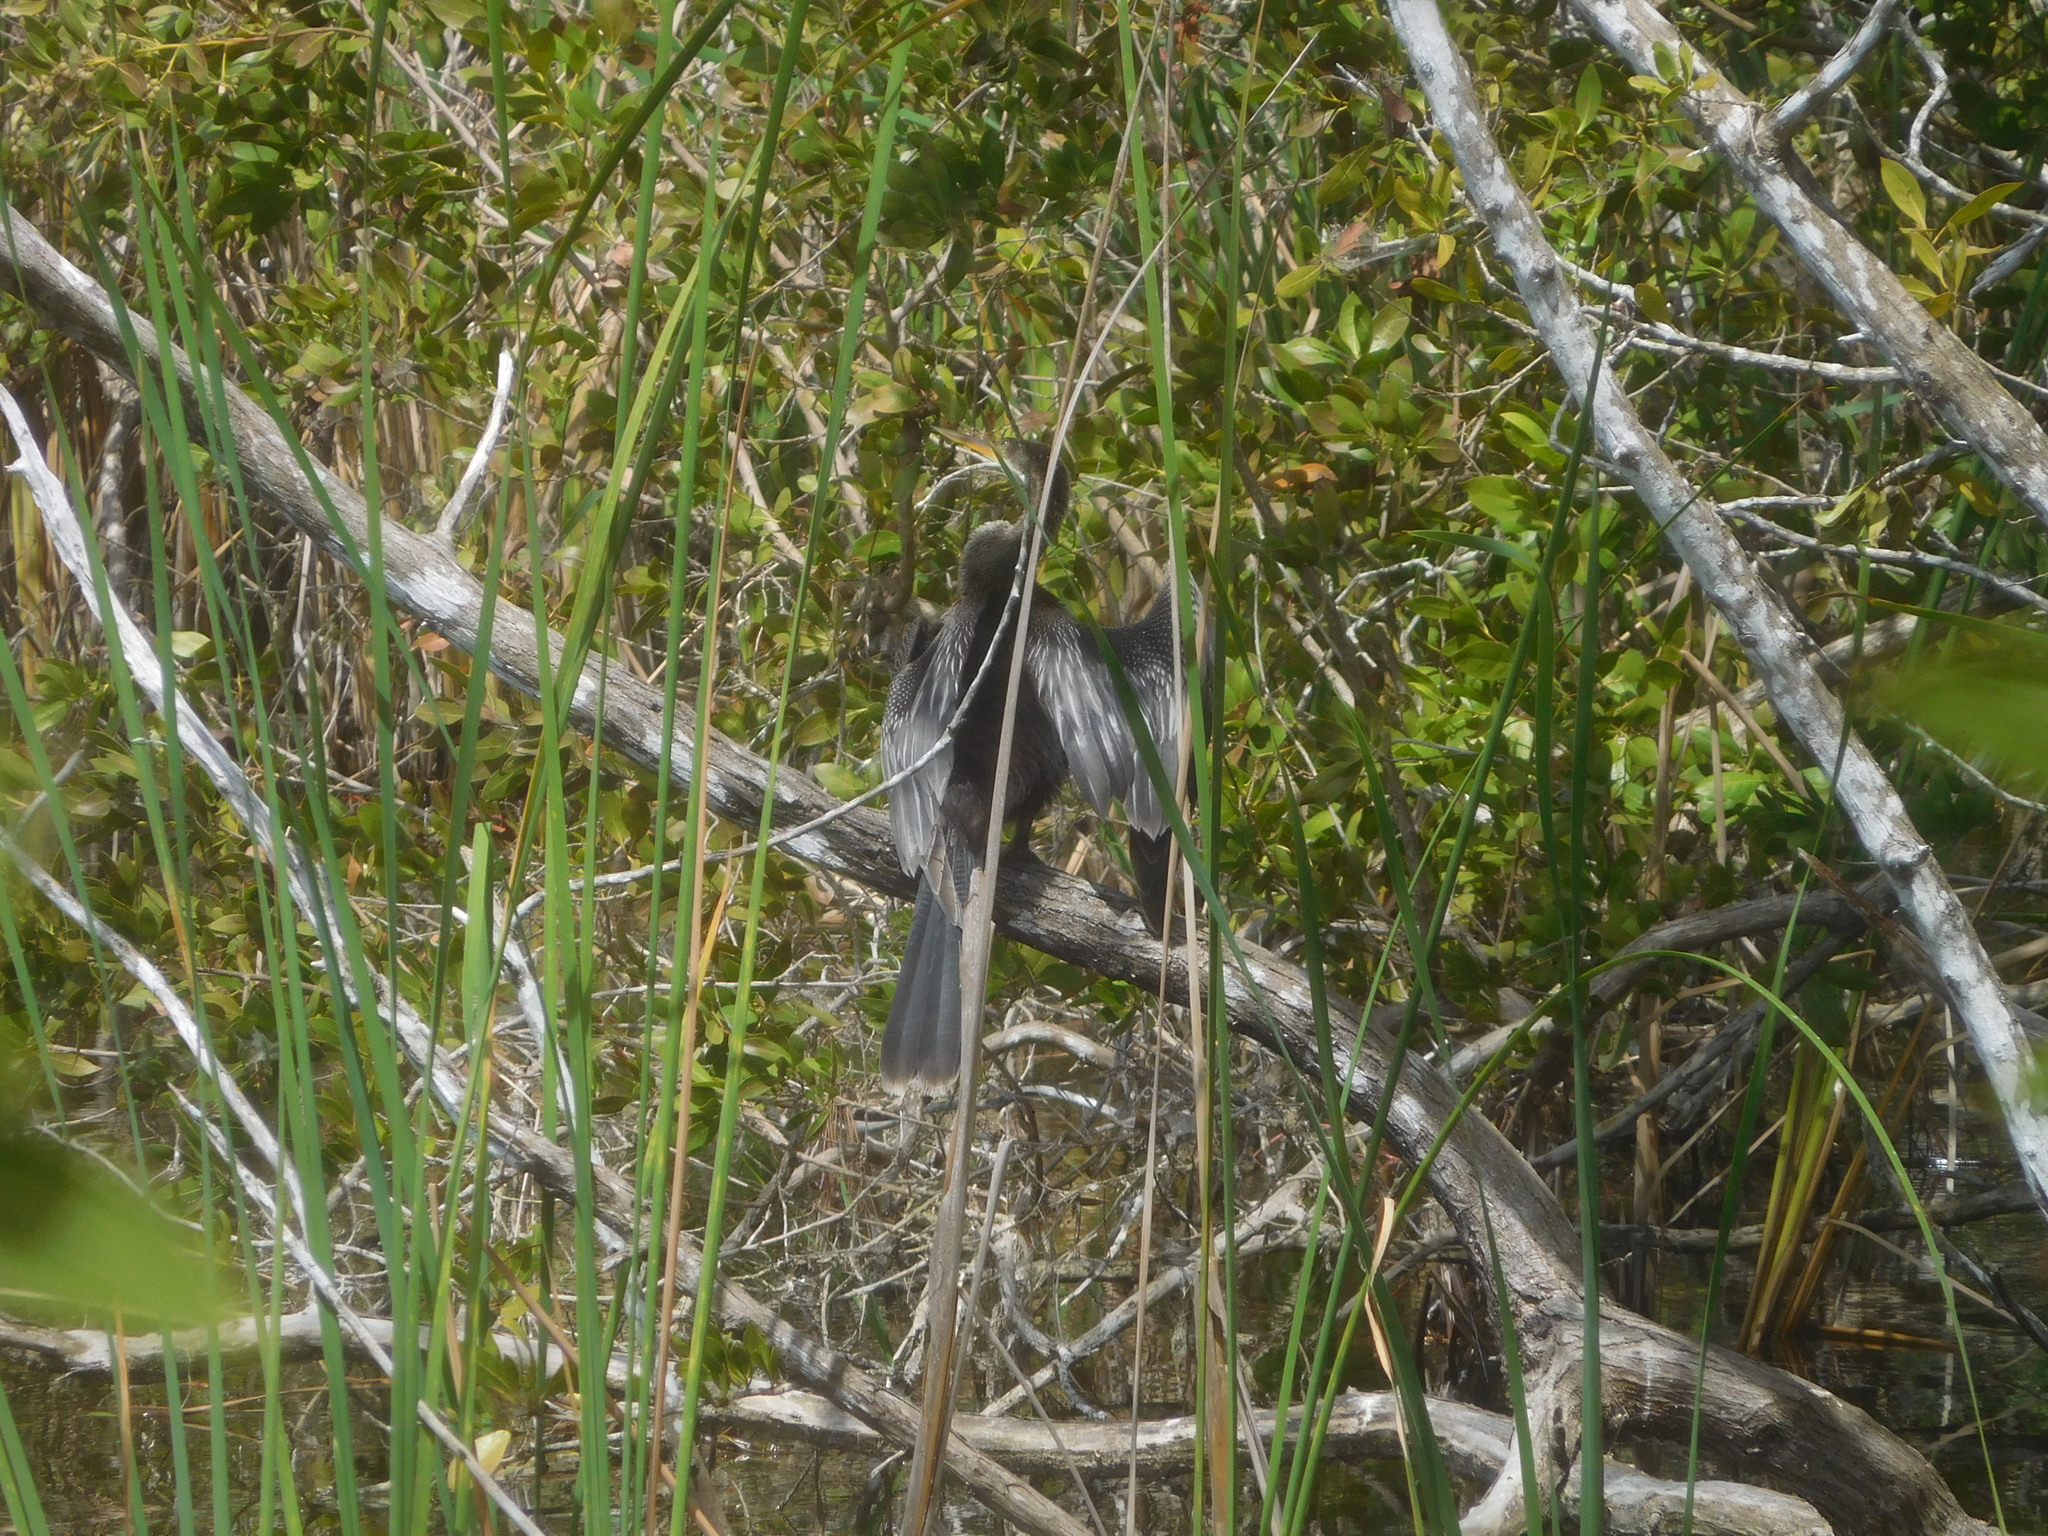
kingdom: Animalia
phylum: Chordata
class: Aves
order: Suliformes
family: Anhingidae
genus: Anhinga
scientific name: Anhinga anhinga
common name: Anhinga
